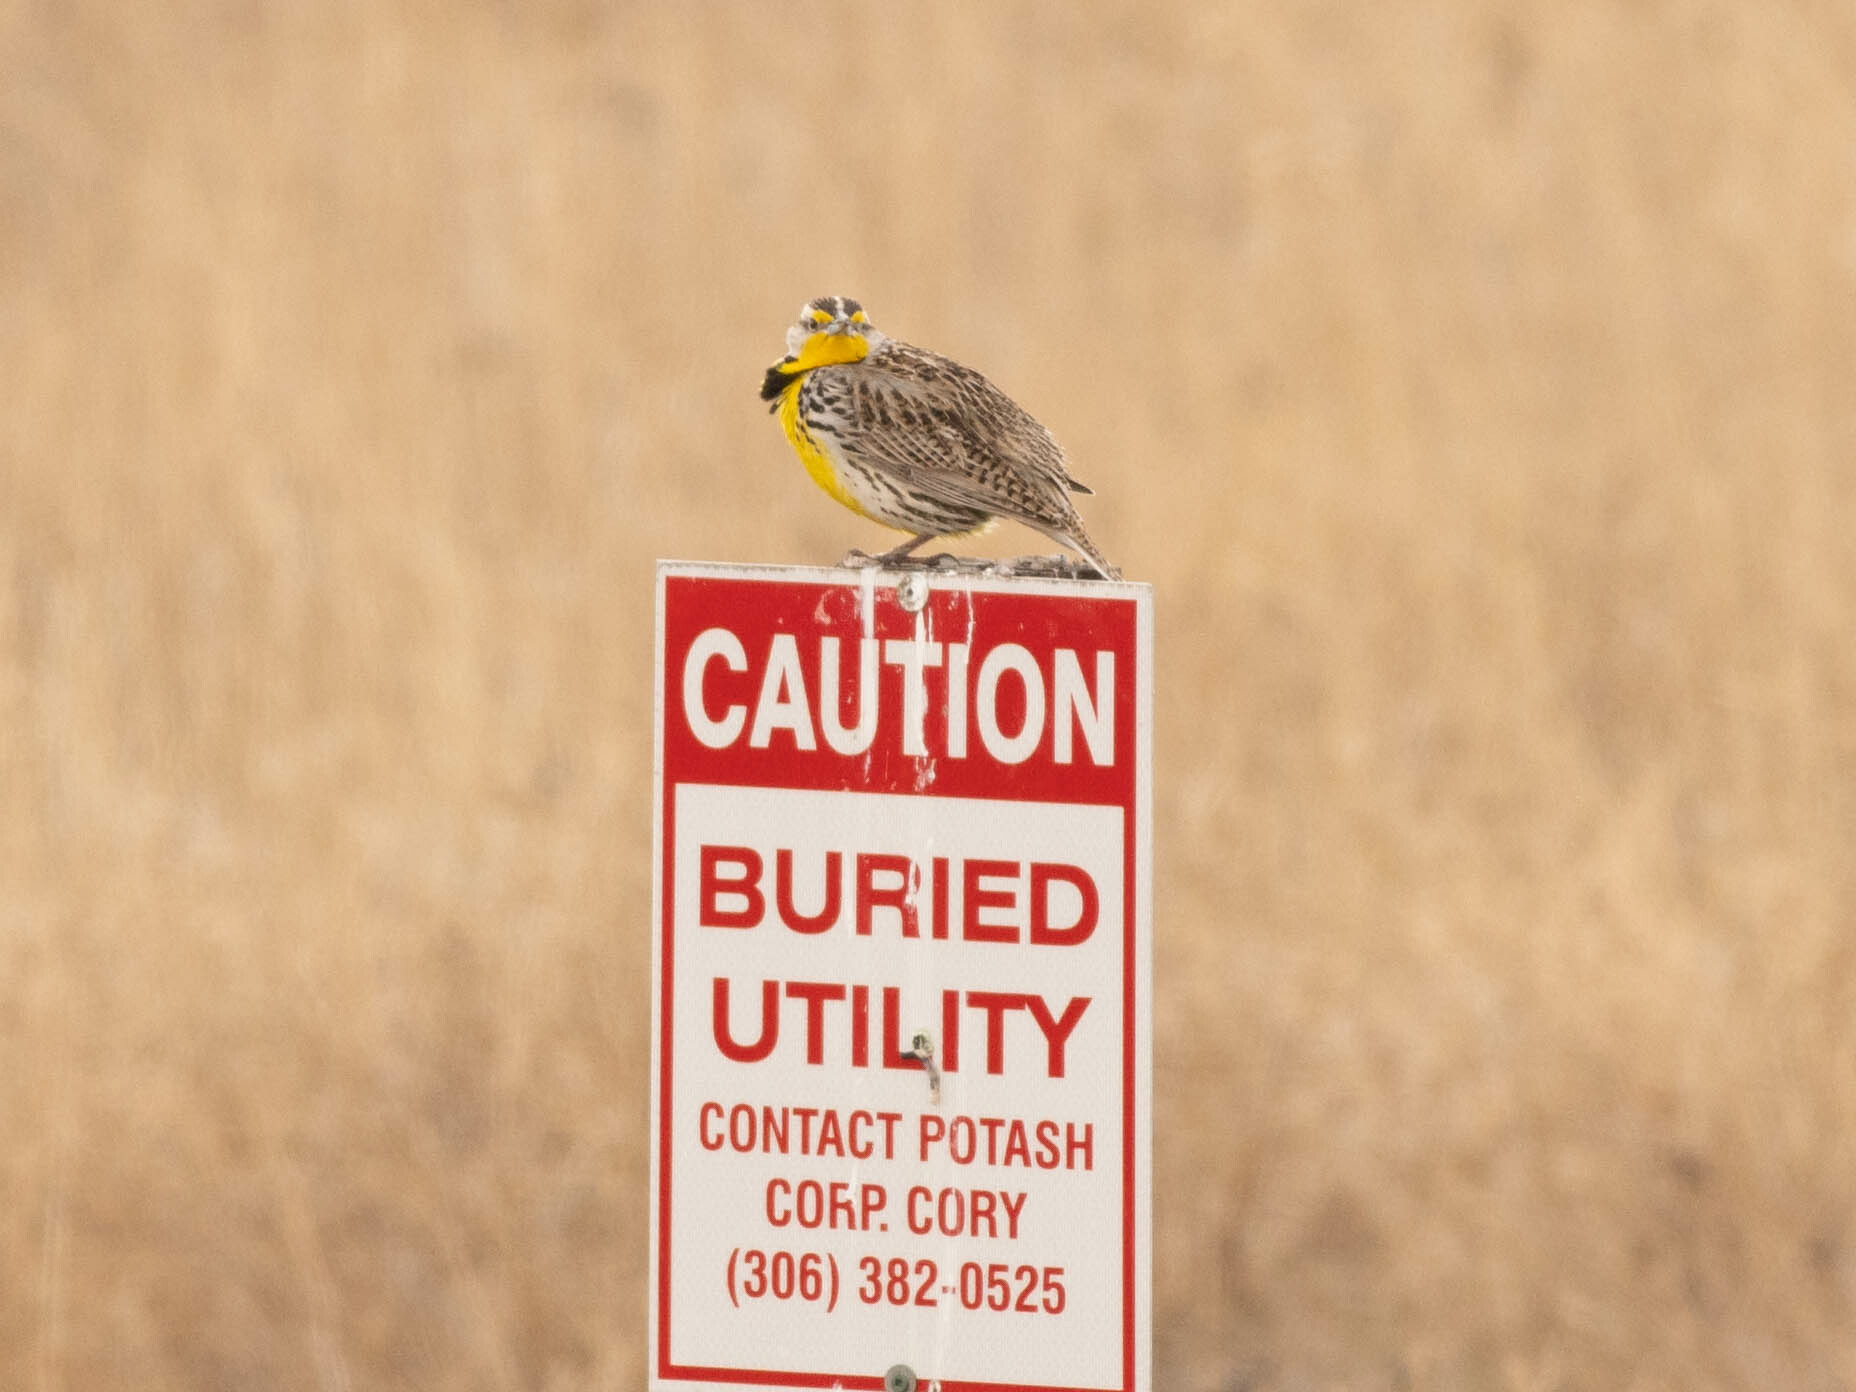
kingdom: Animalia
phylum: Chordata
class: Aves
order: Passeriformes
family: Icteridae
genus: Sturnella
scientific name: Sturnella neglecta
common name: Western meadowlark
